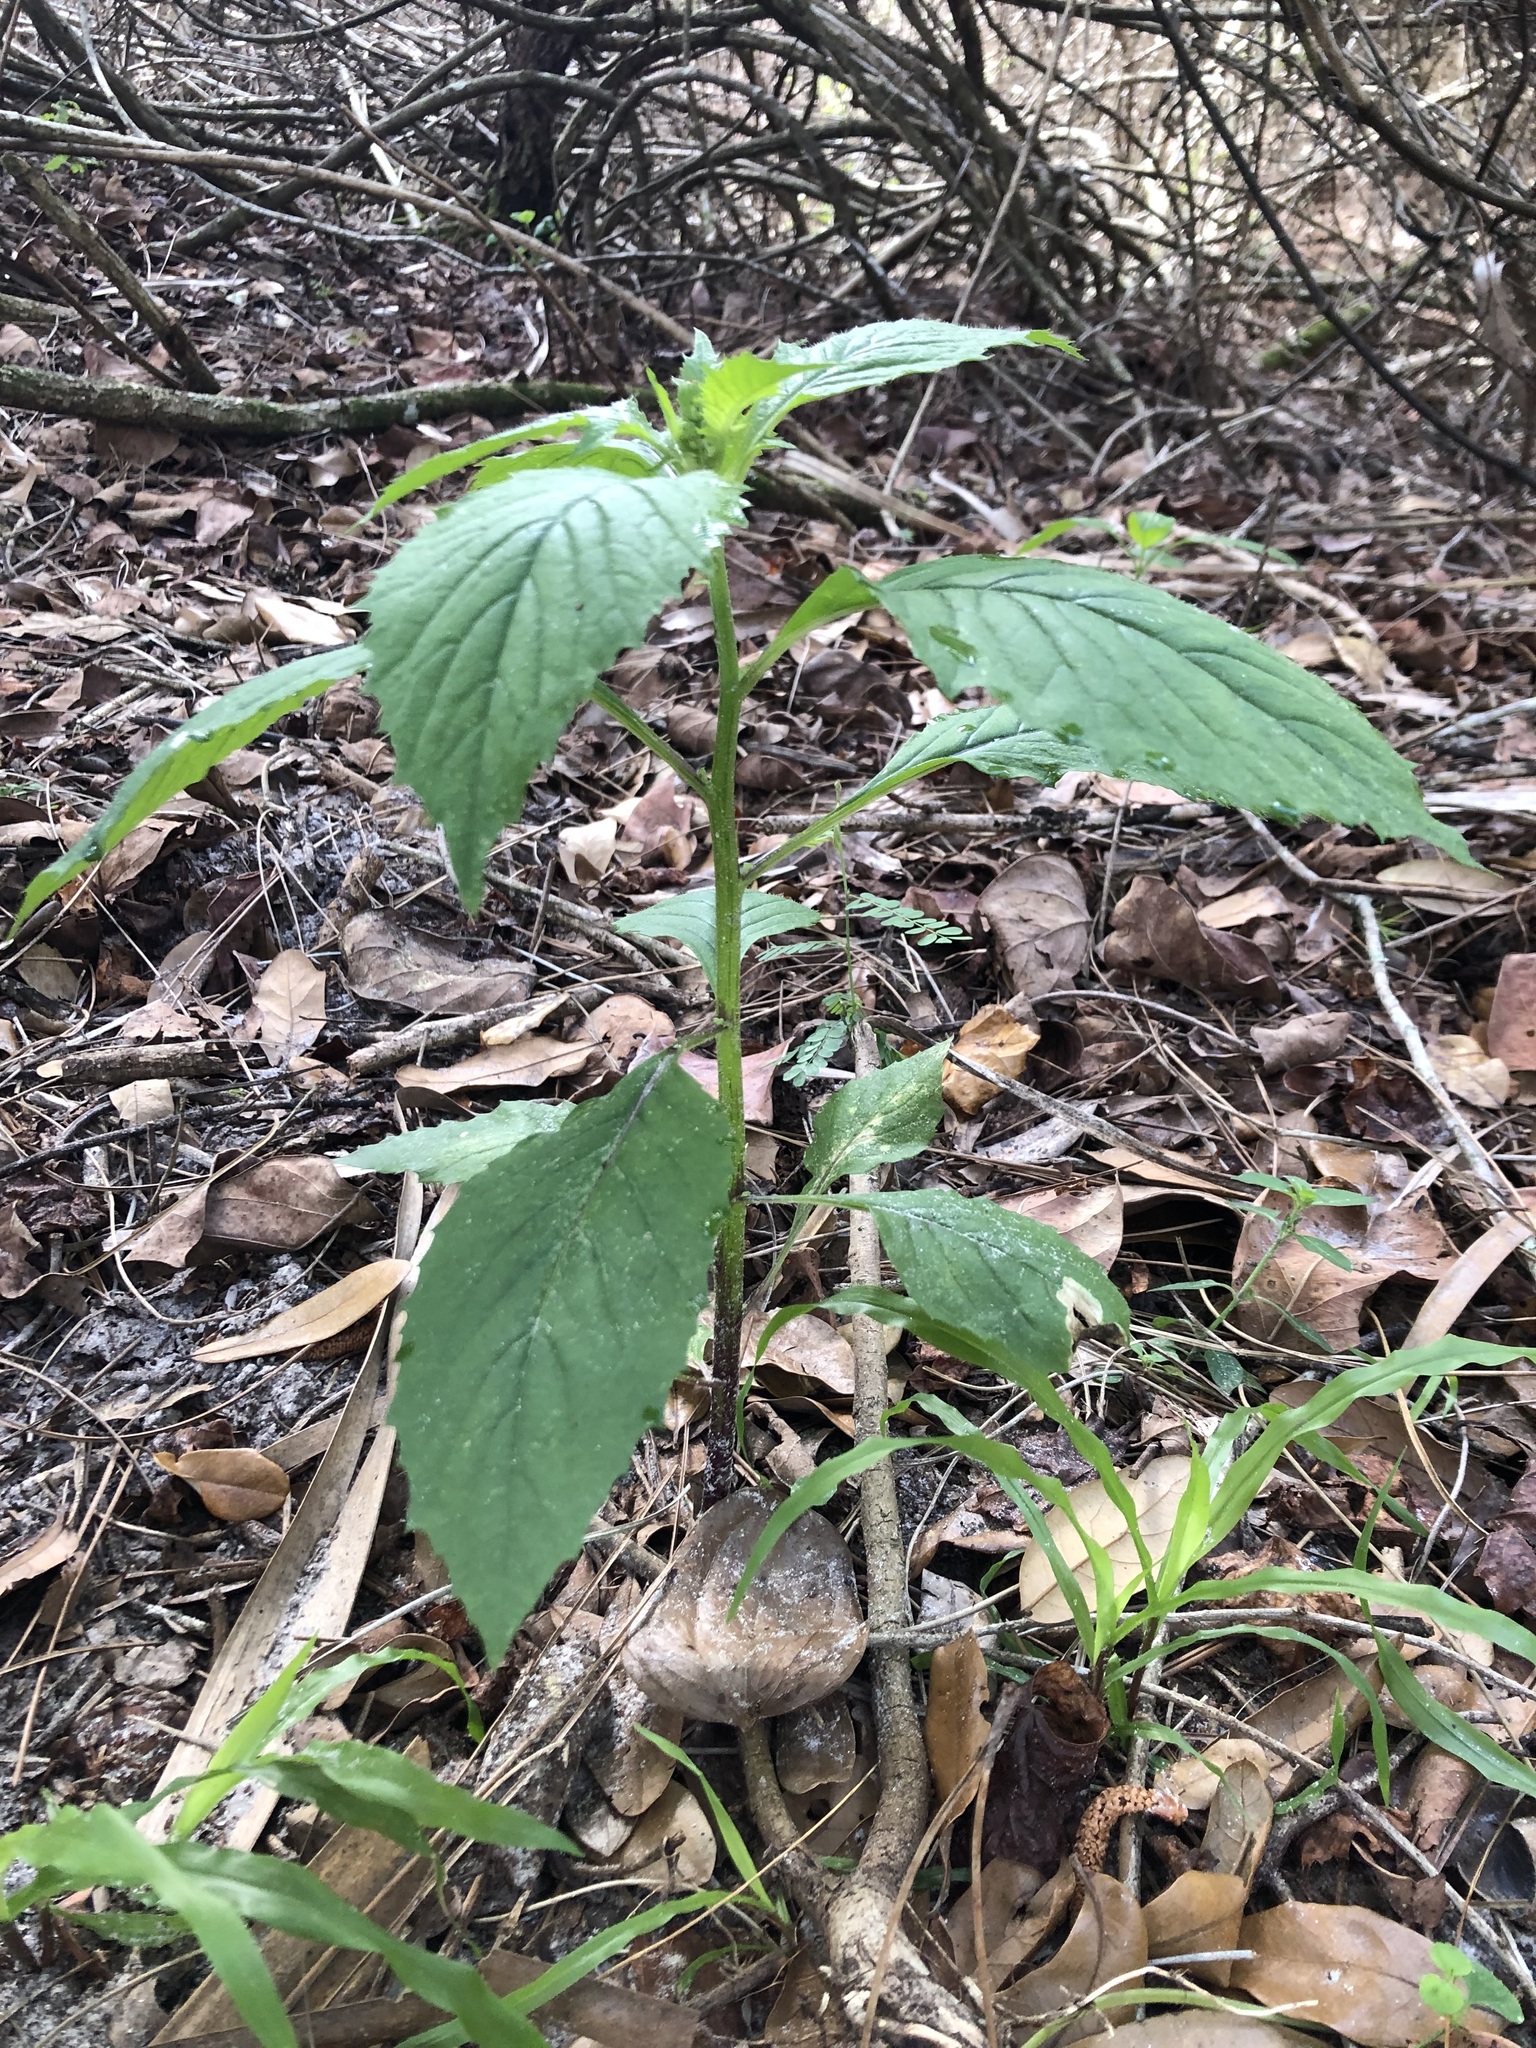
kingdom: Plantae
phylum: Tracheophyta
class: Magnoliopsida
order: Asterales
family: Asteraceae
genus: Crassocephalum
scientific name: Crassocephalum crepidioides
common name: Redflower ragleaf
